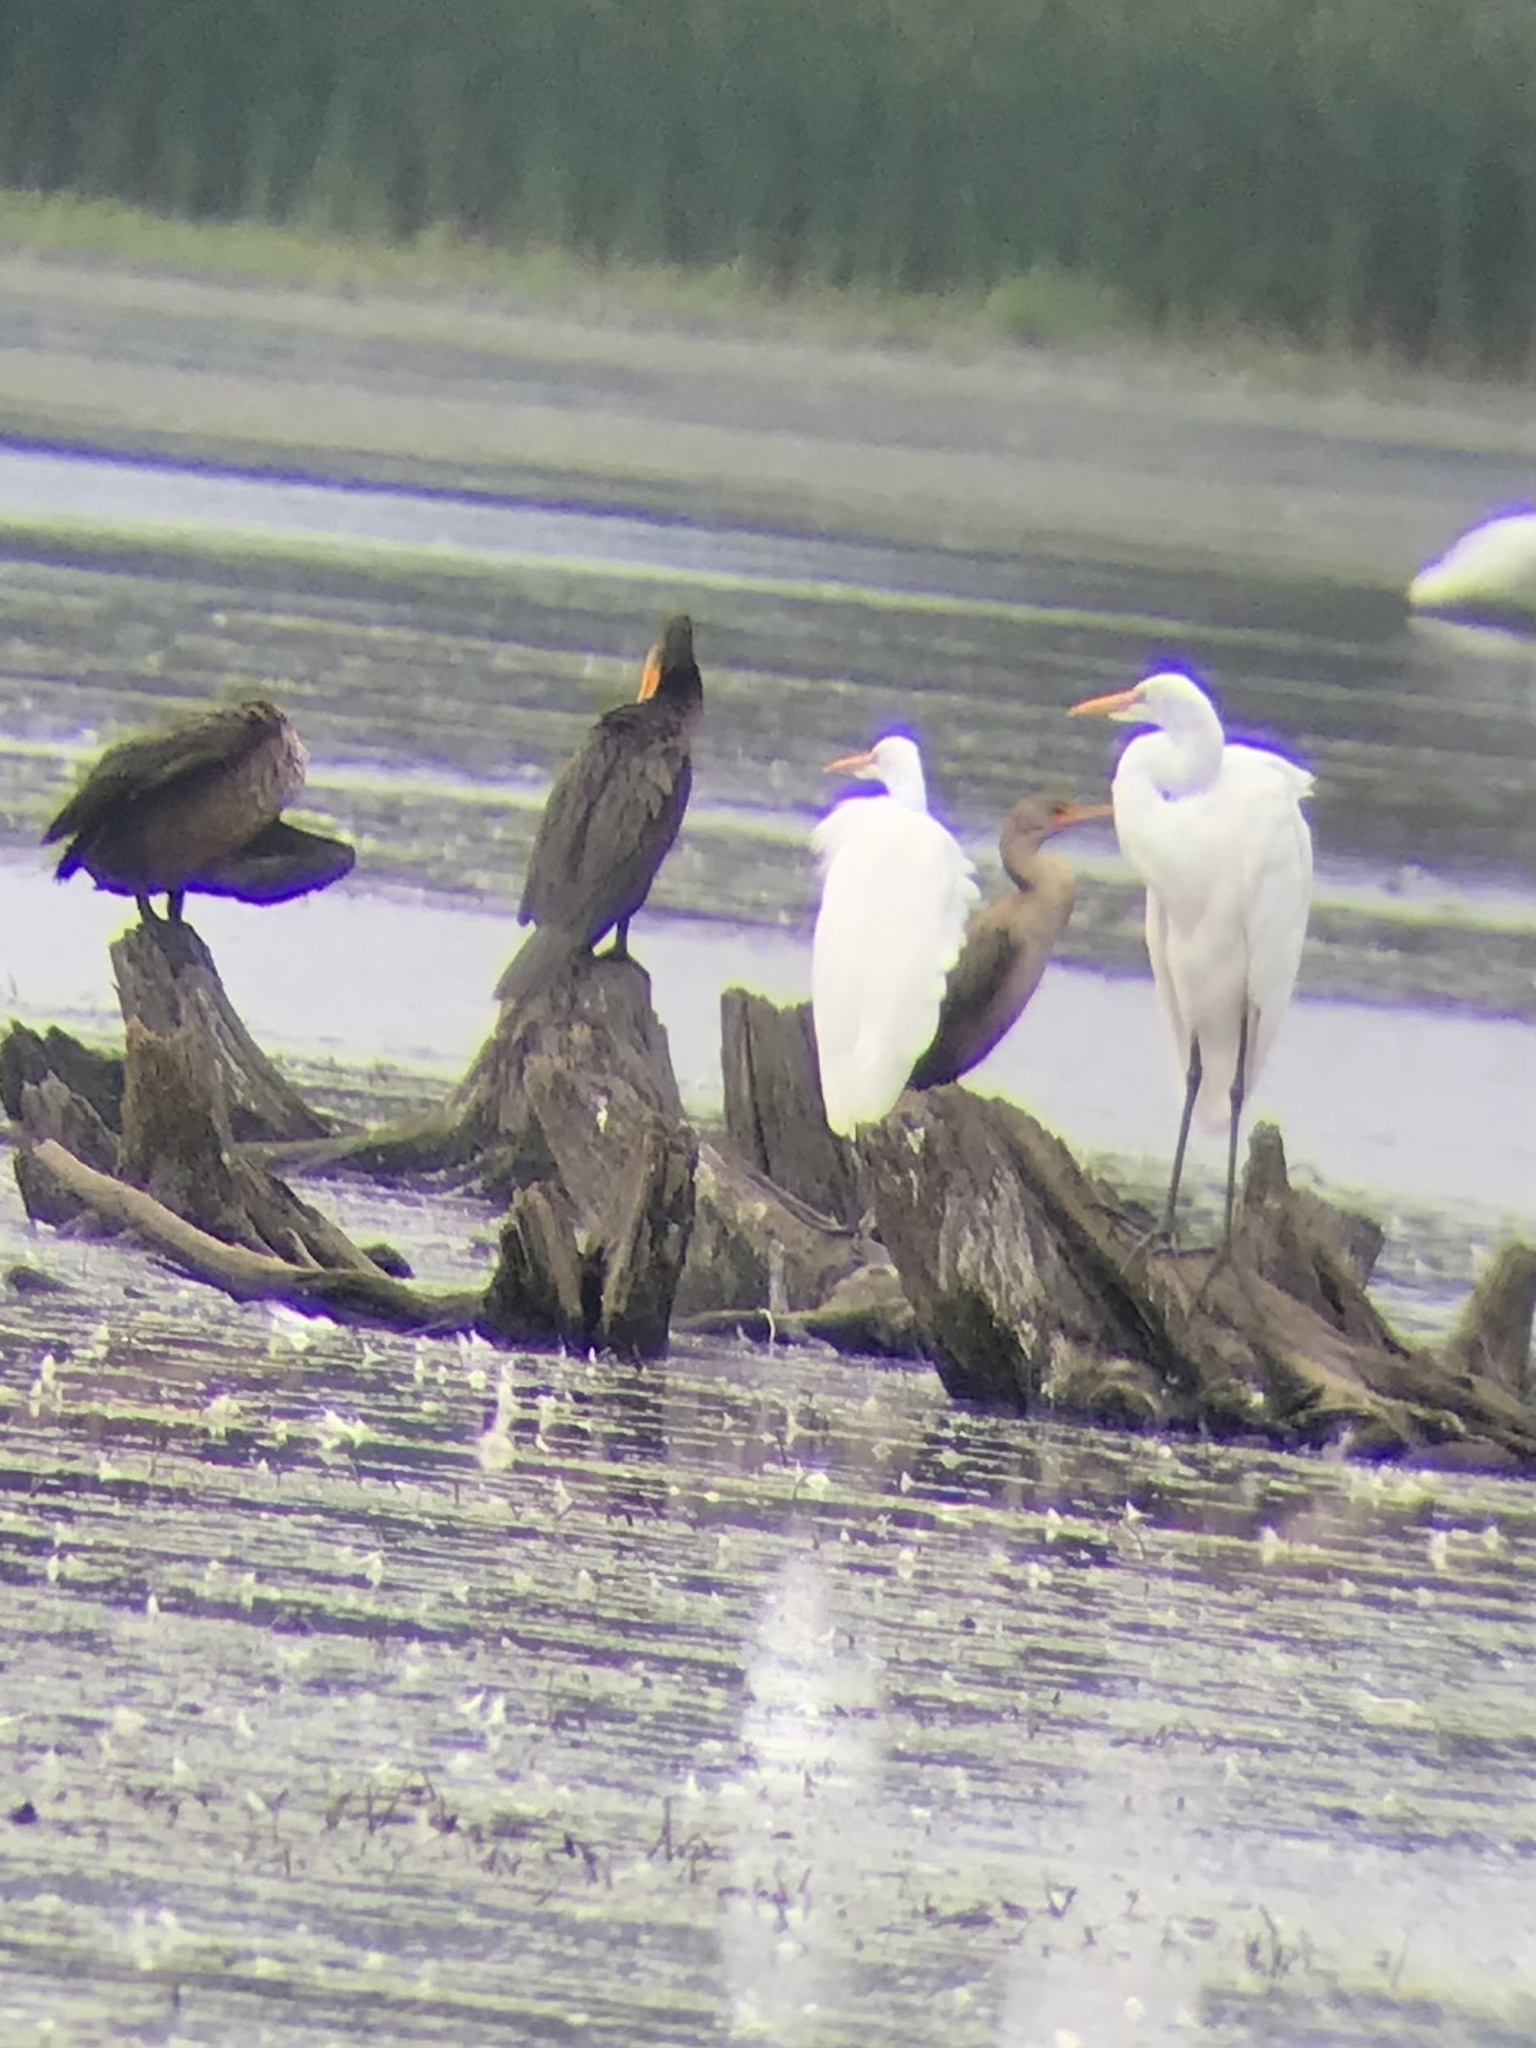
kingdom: Animalia
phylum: Chordata
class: Aves
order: Pelecaniformes
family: Ardeidae
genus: Ardea
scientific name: Ardea alba
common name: Great egret
